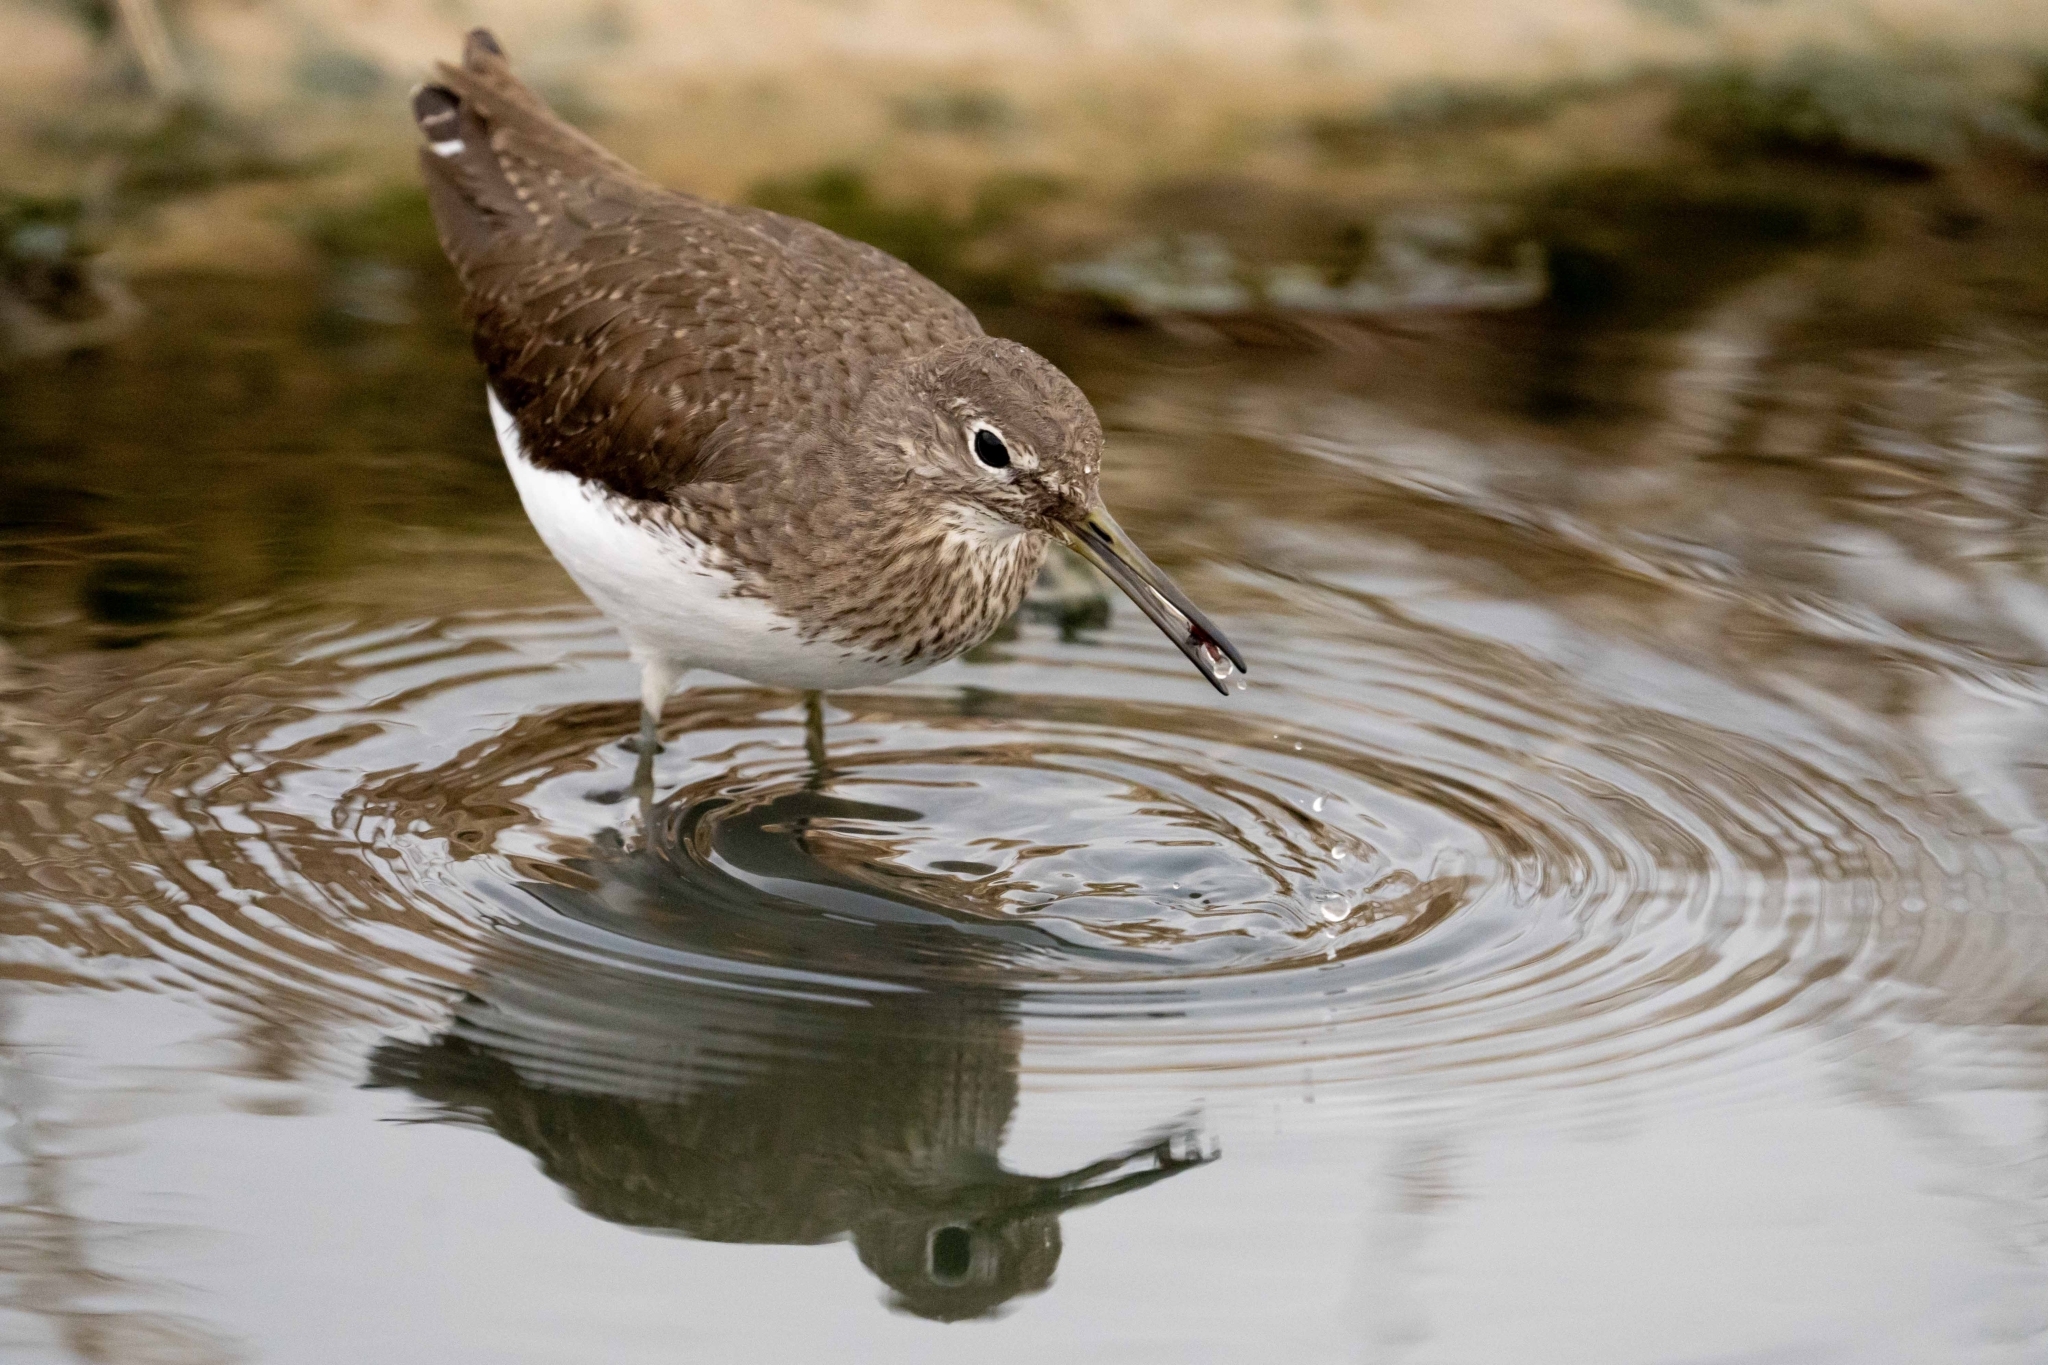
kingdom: Animalia
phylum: Chordata
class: Aves
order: Charadriiformes
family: Scolopacidae
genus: Tringa
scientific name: Tringa ochropus
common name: Green sandpiper
